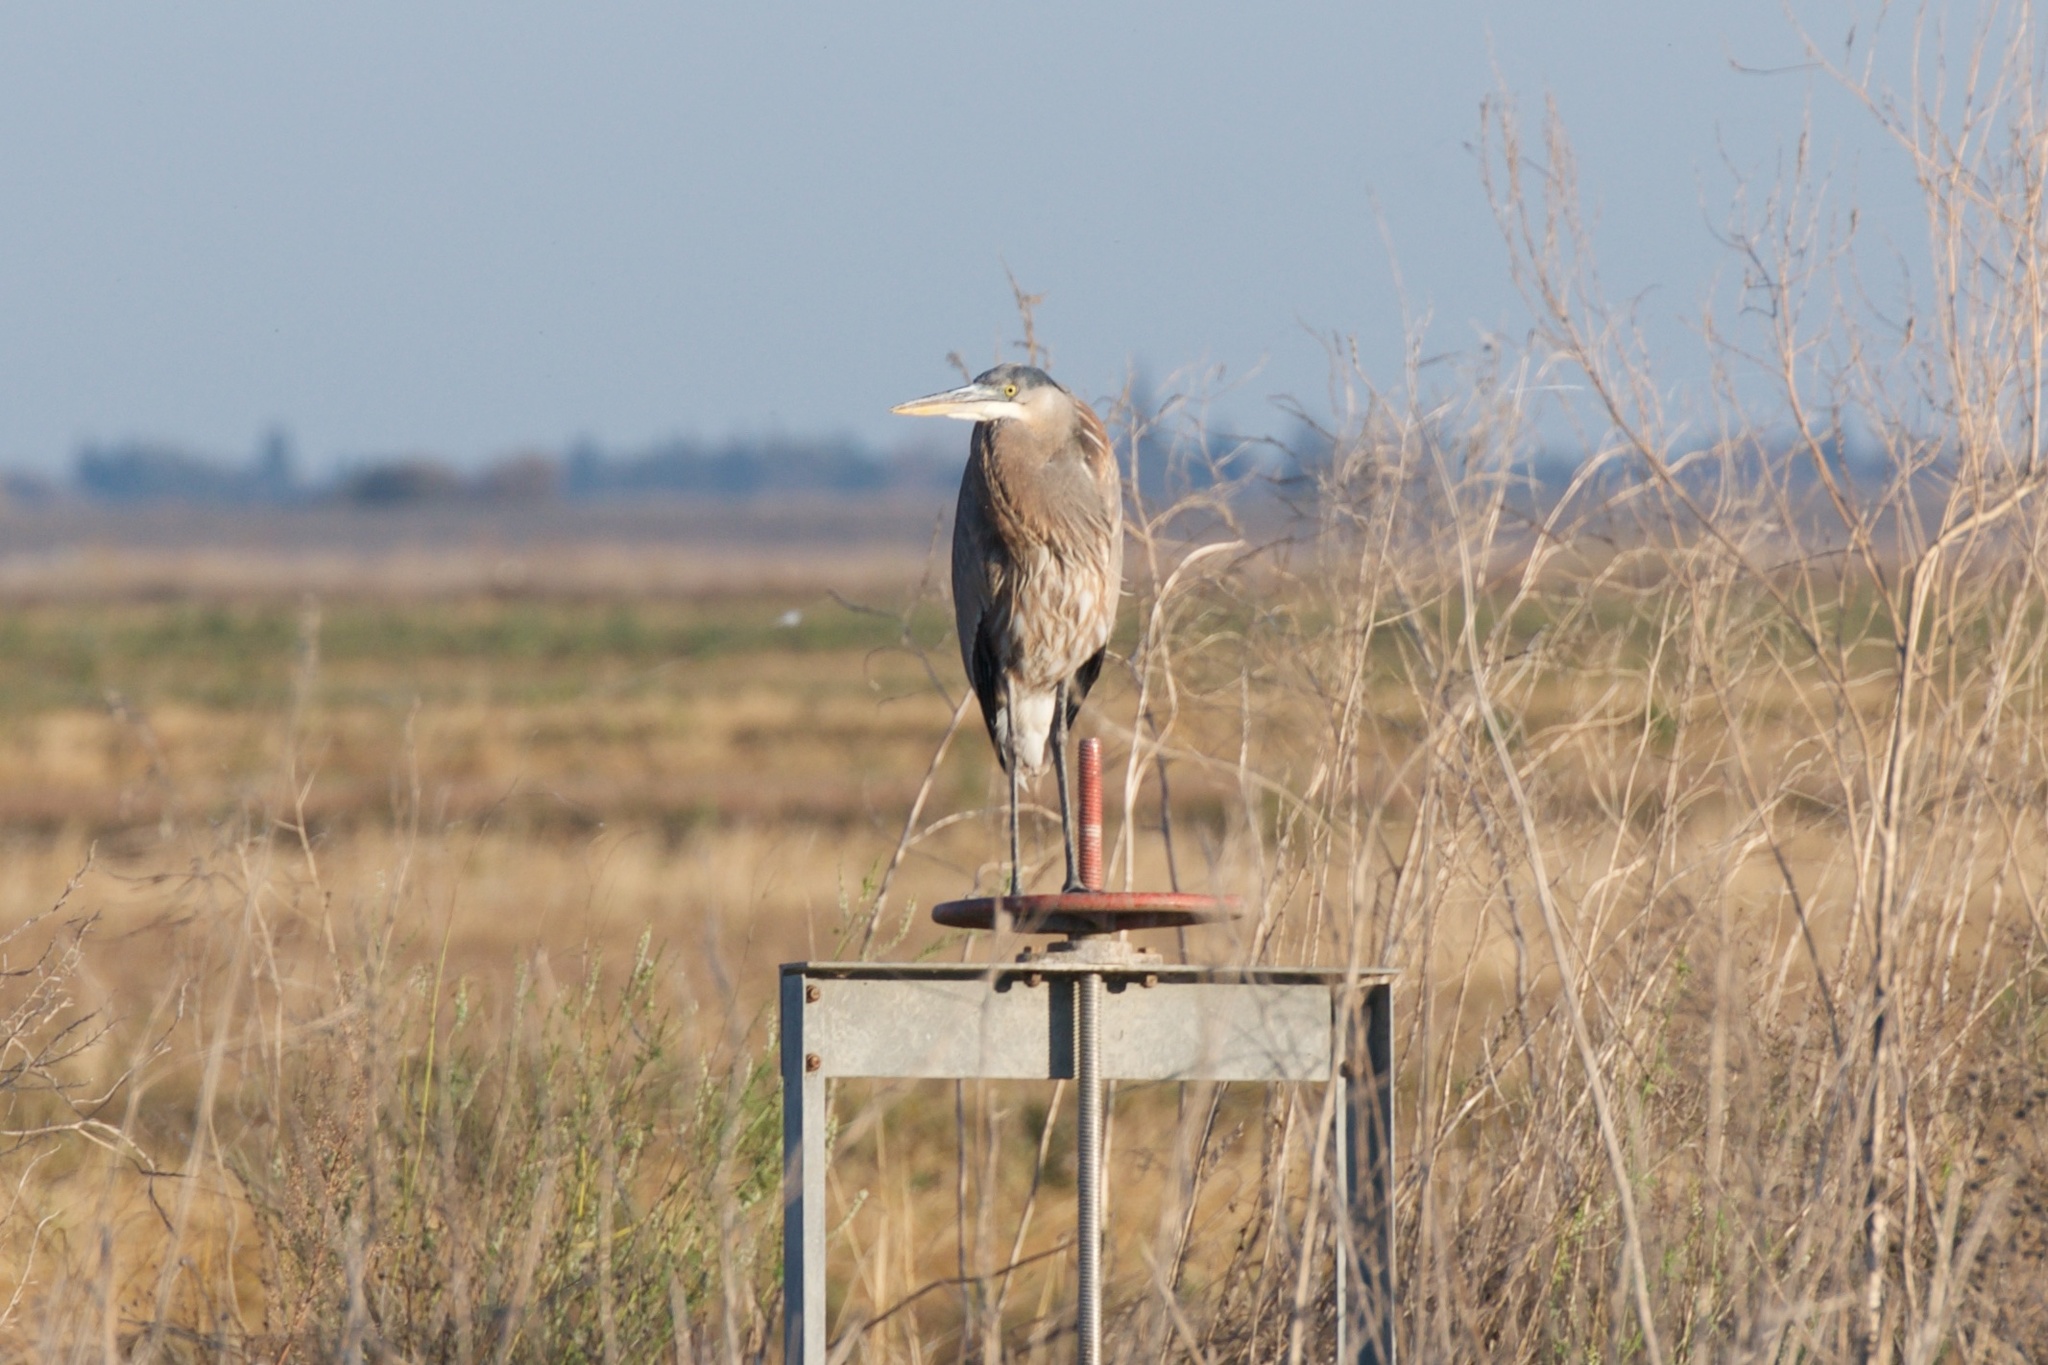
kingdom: Animalia
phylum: Chordata
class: Aves
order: Pelecaniformes
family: Ardeidae
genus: Ardea
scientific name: Ardea herodias
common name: Great blue heron
